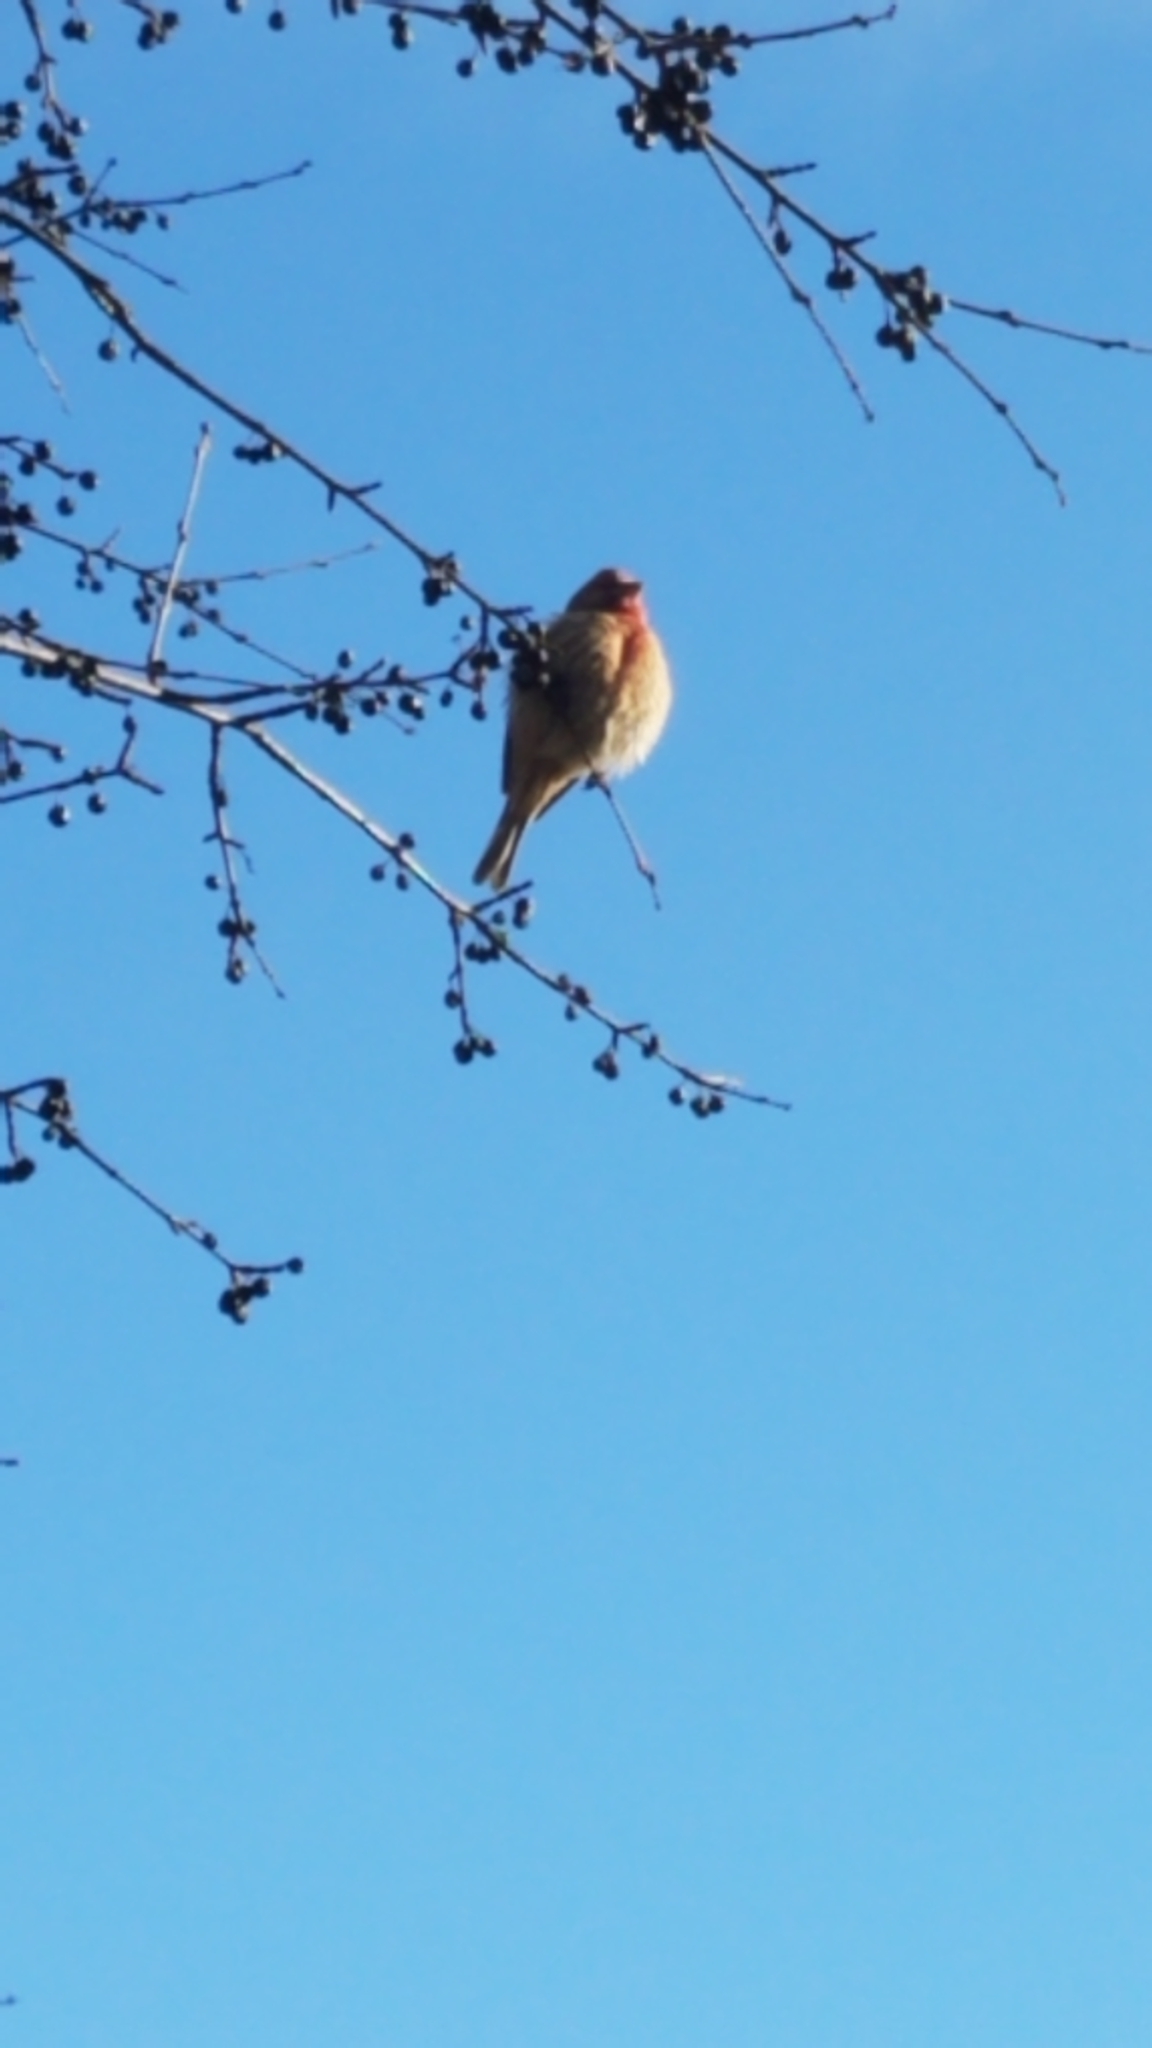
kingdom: Animalia
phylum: Chordata
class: Aves
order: Passeriformes
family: Fringillidae
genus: Haemorhous
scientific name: Haemorhous mexicanus
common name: House finch
